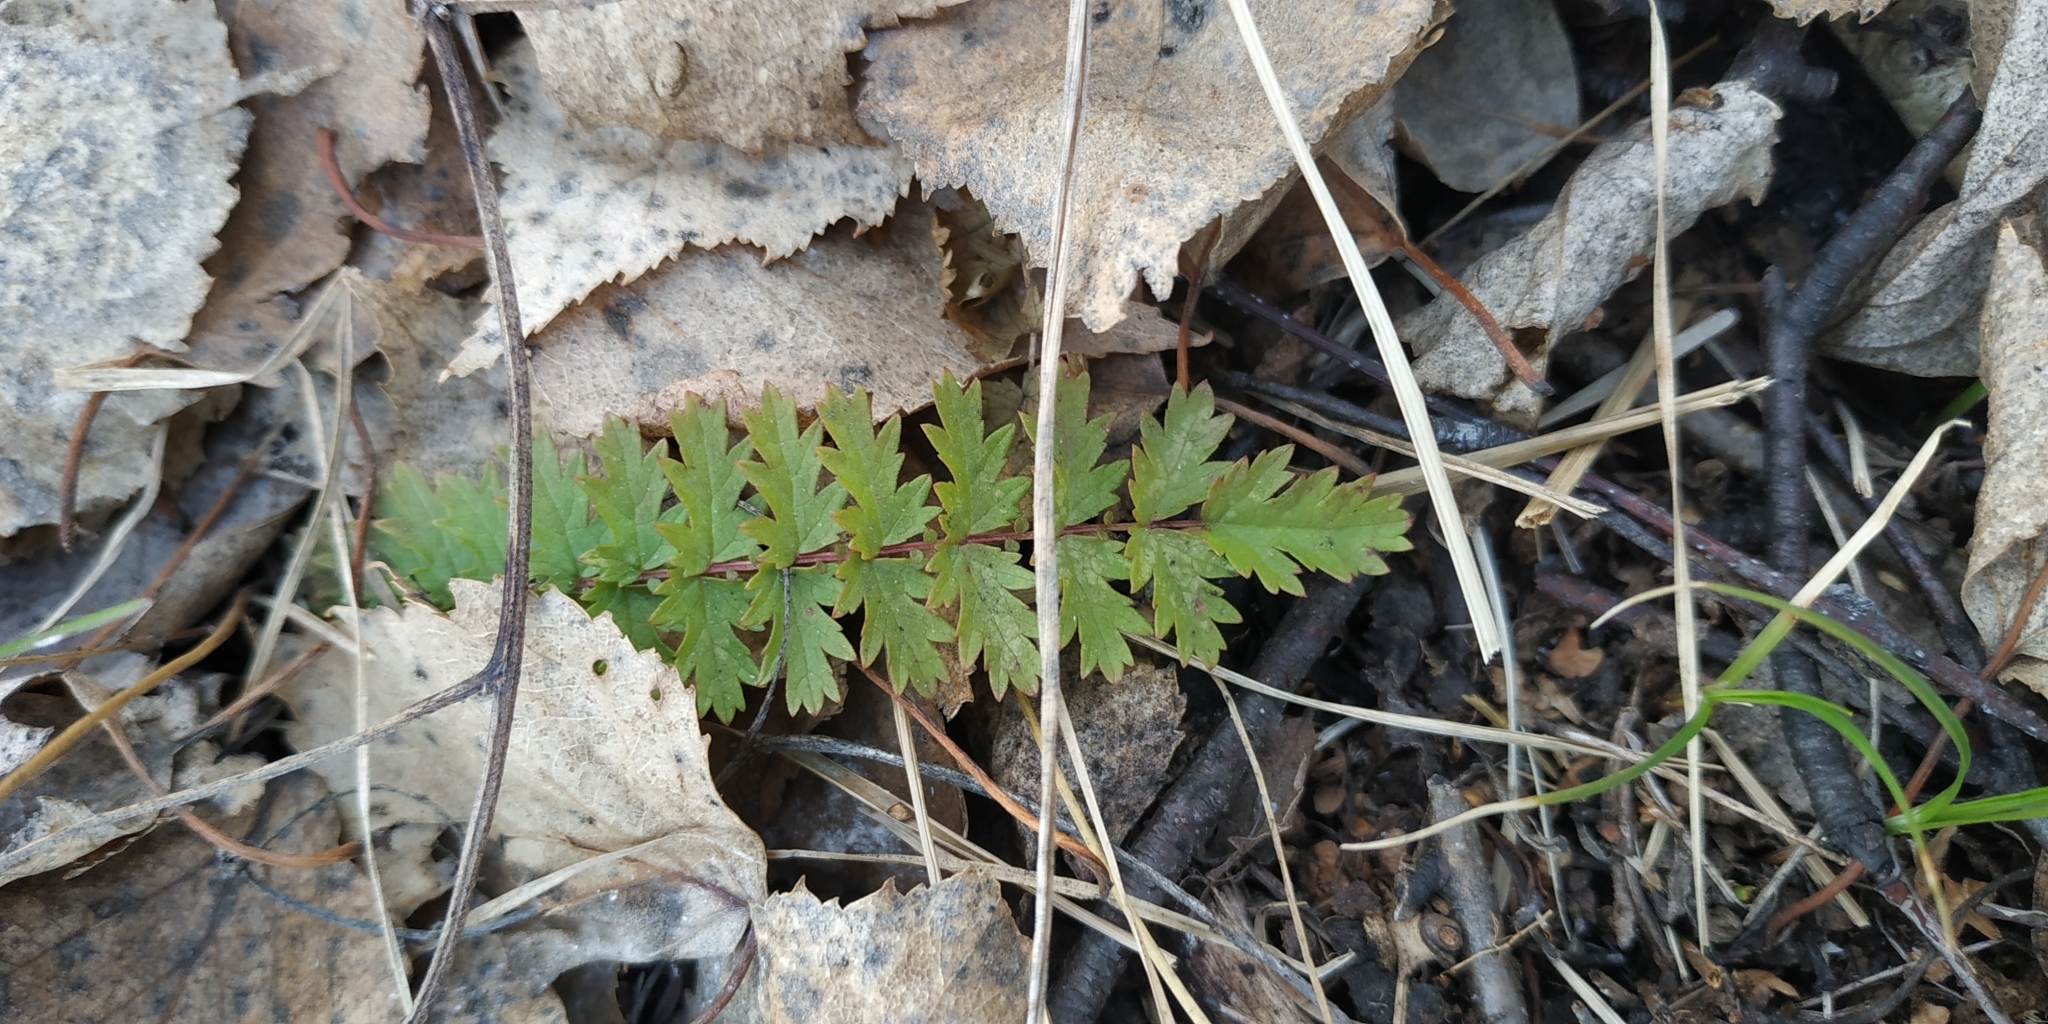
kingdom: Plantae
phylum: Tracheophyta
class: Magnoliopsida
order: Rosales
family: Rosaceae
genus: Filipendula
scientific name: Filipendula vulgaris
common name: Dropwort
